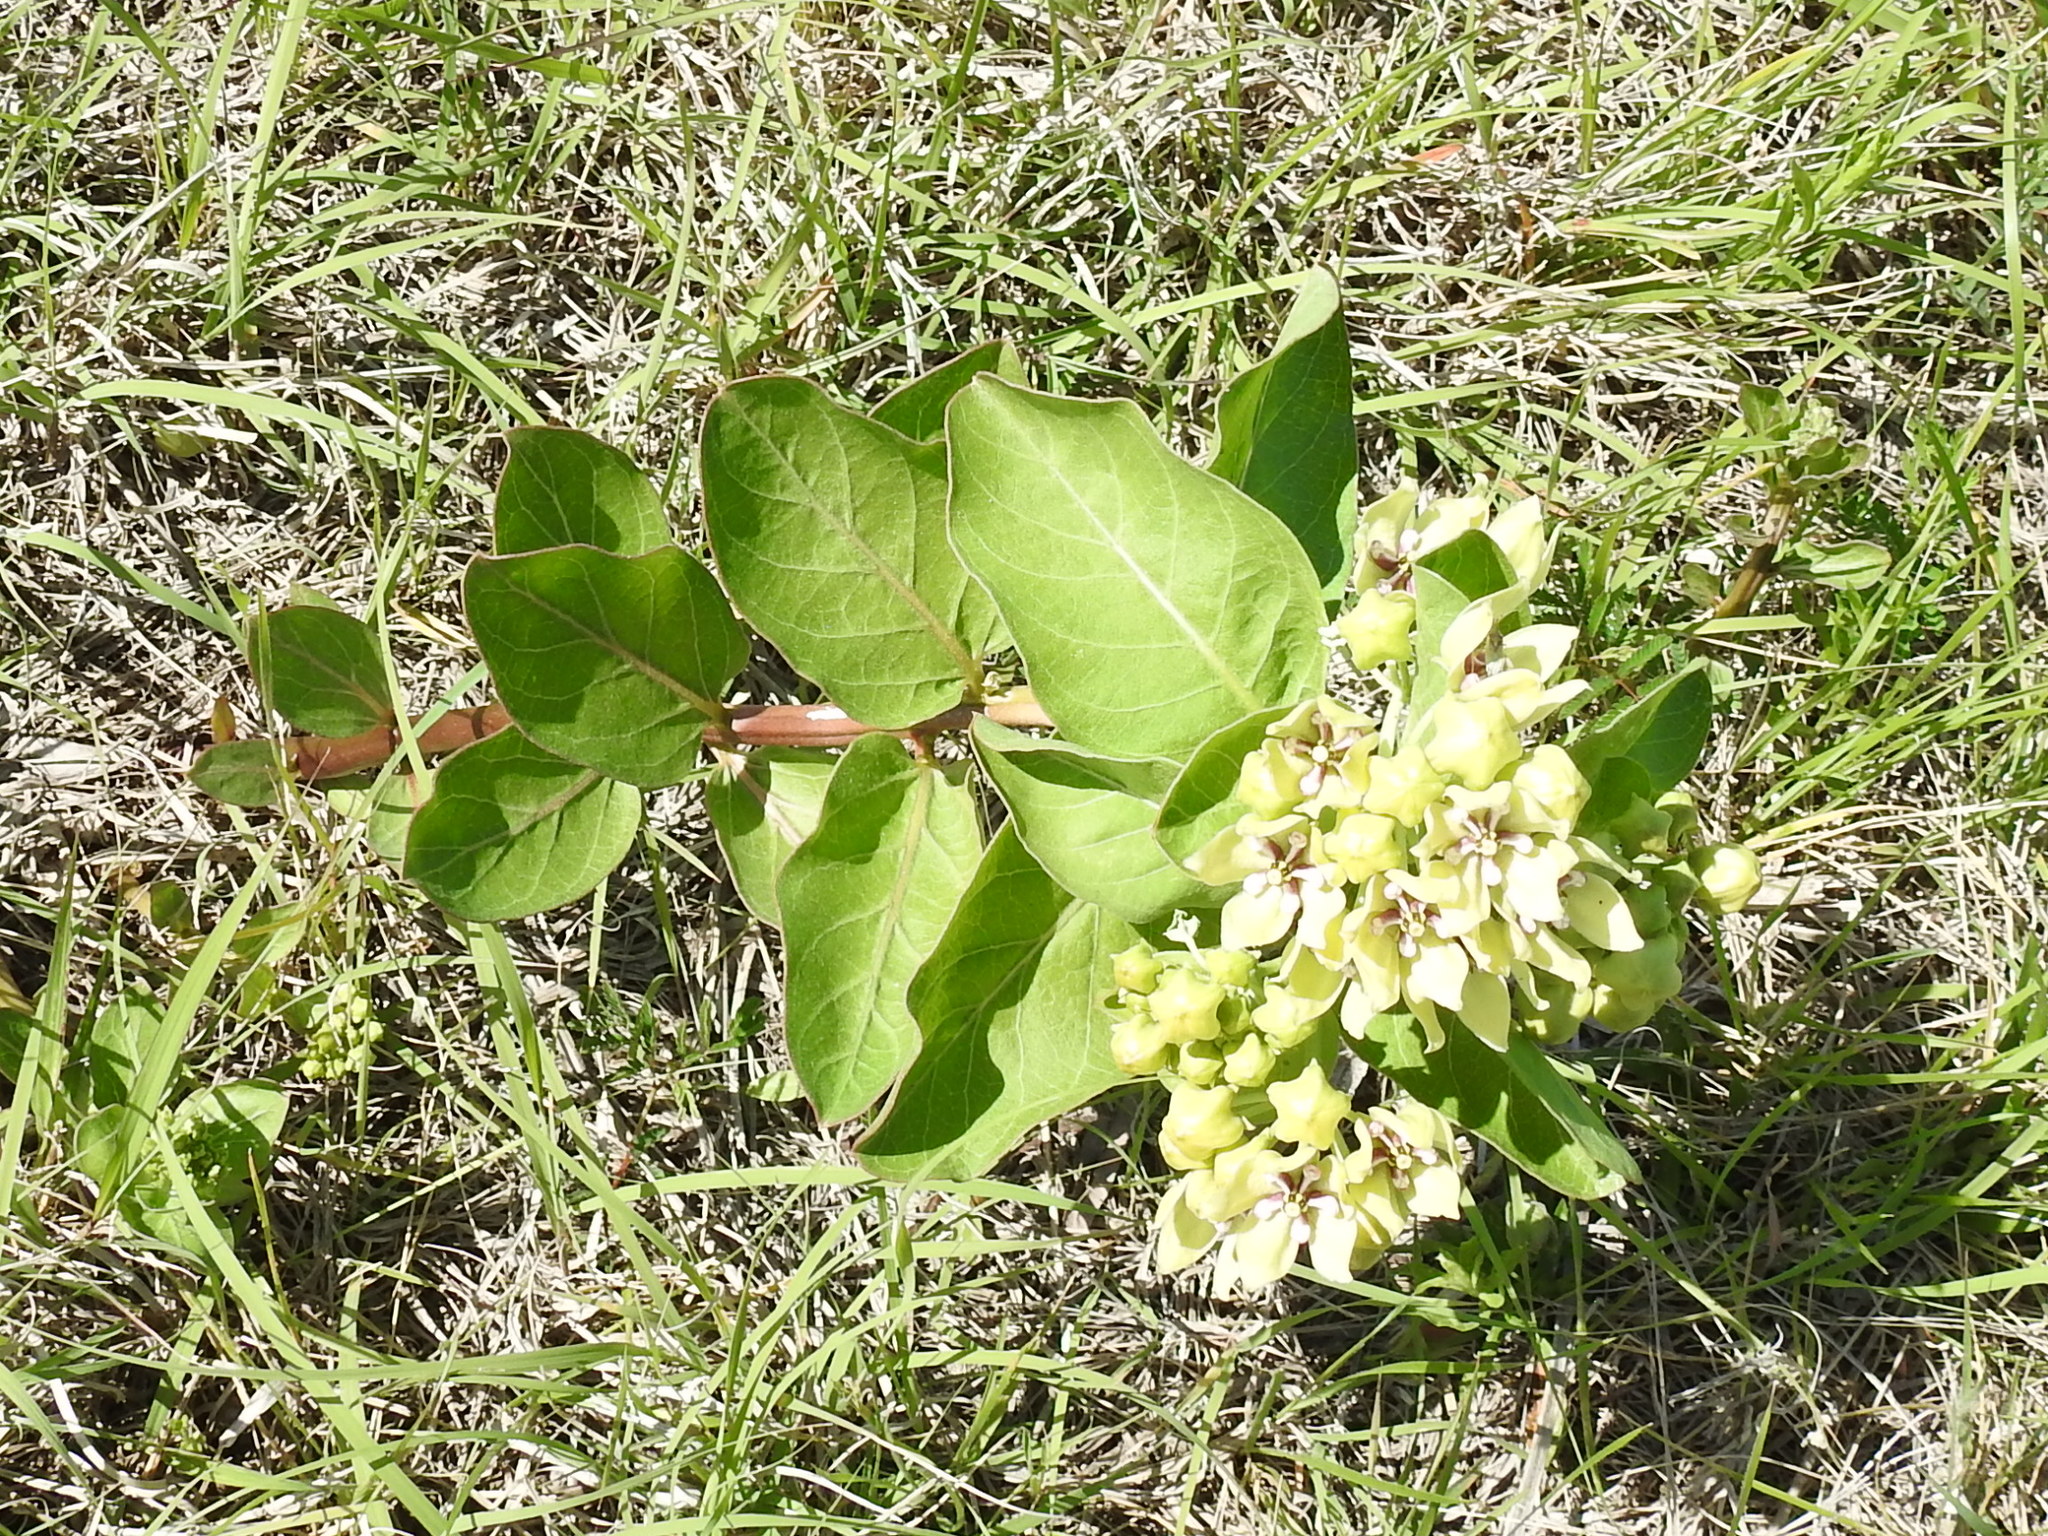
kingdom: Plantae
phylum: Tracheophyta
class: Magnoliopsida
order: Gentianales
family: Apocynaceae
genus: Asclepias
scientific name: Asclepias viridis
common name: Antelope-horns
